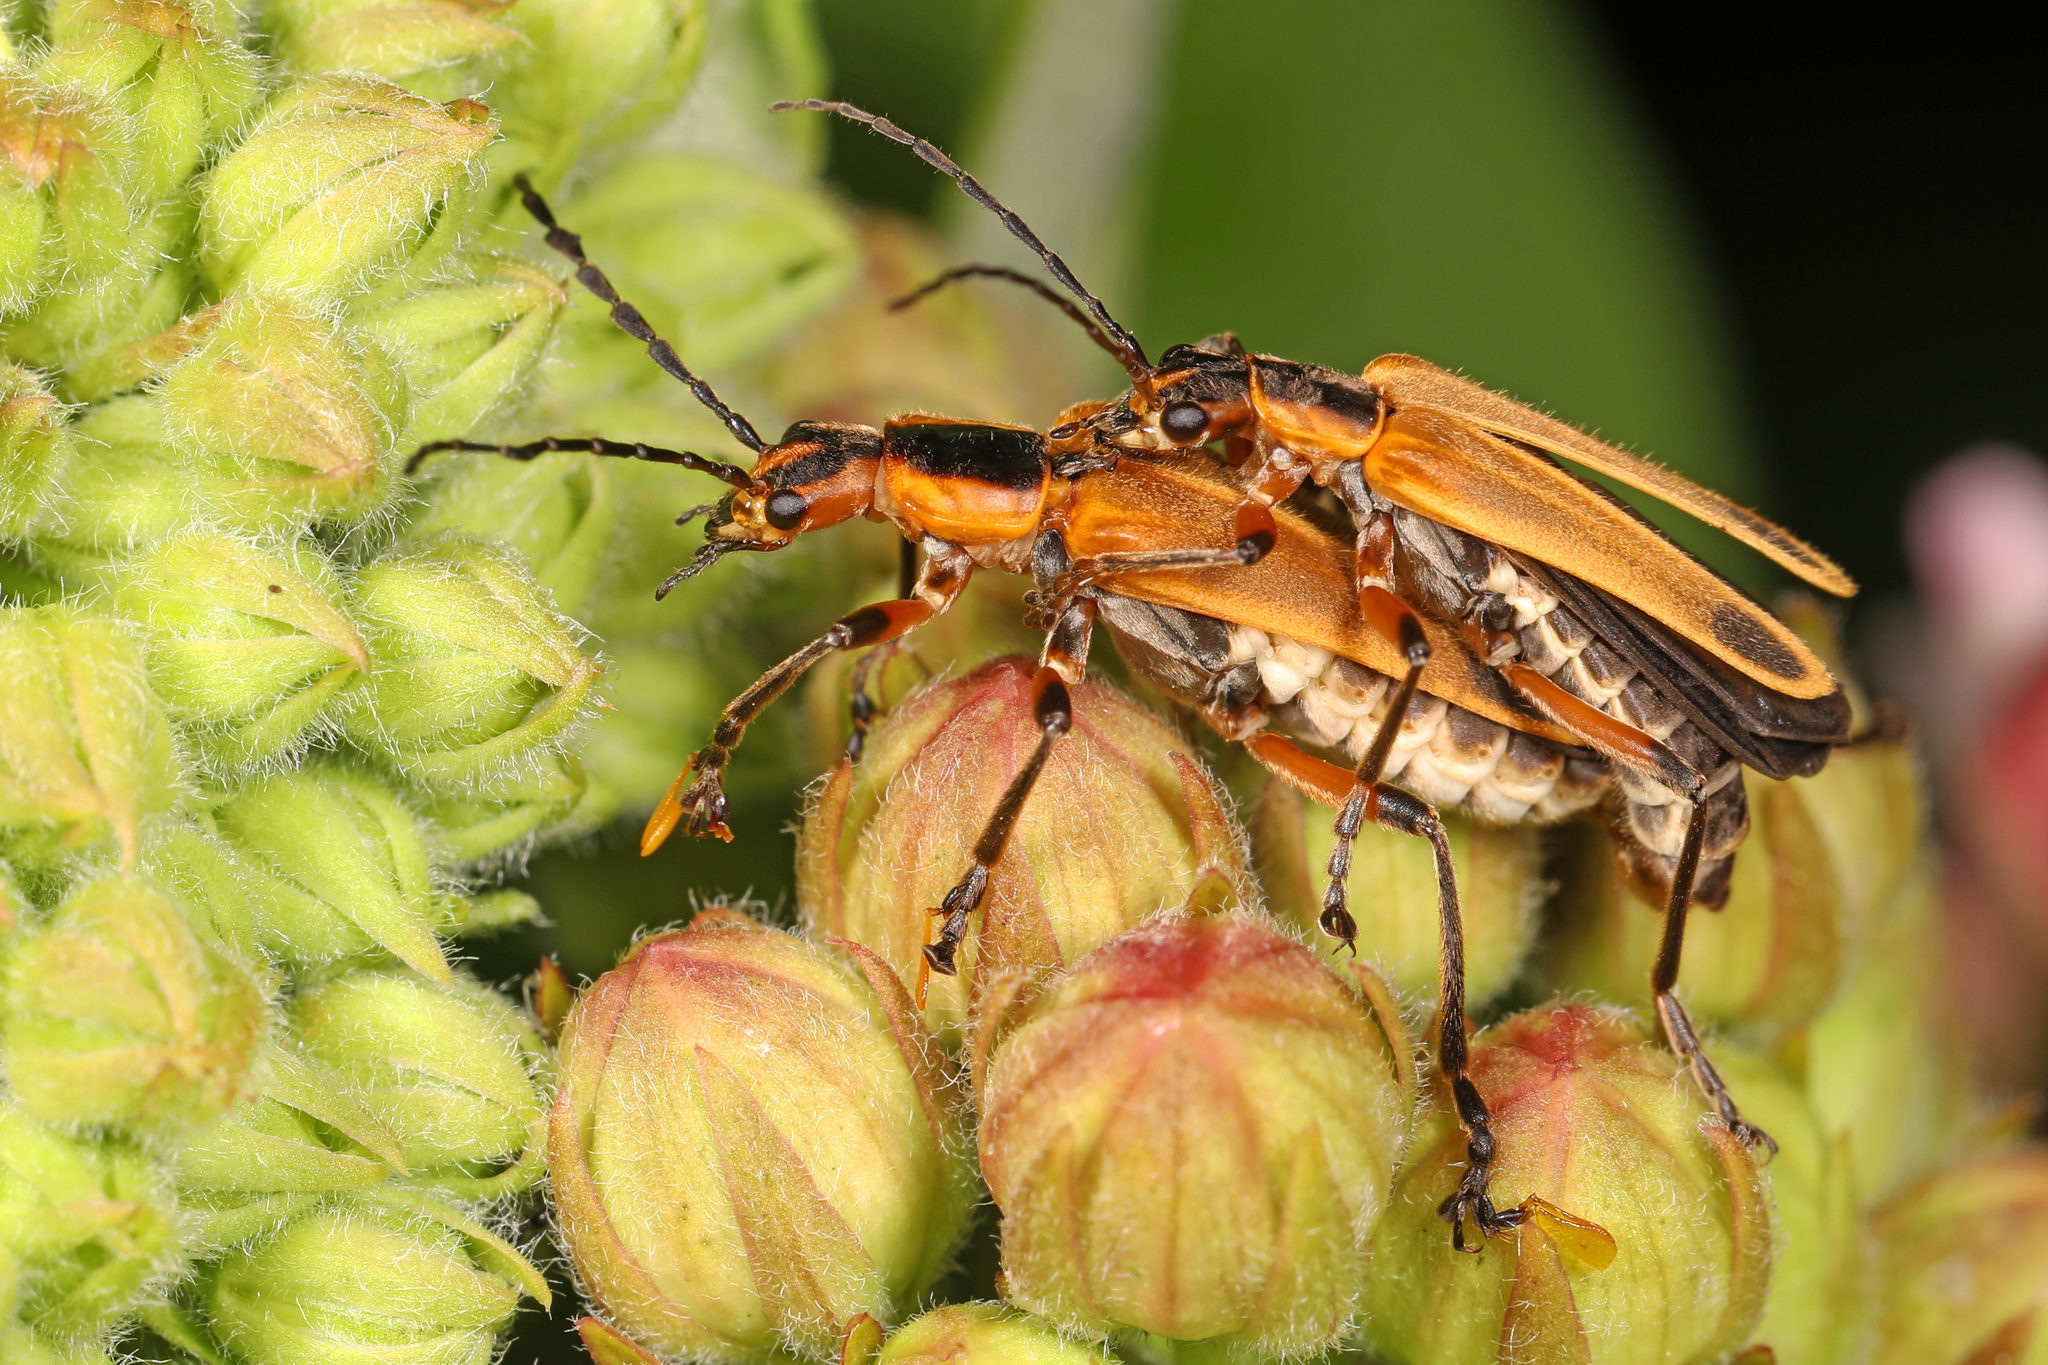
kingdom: Animalia
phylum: Arthropoda
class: Insecta
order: Coleoptera
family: Cantharidae
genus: Chauliognathus
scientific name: Chauliognathus marginatus
